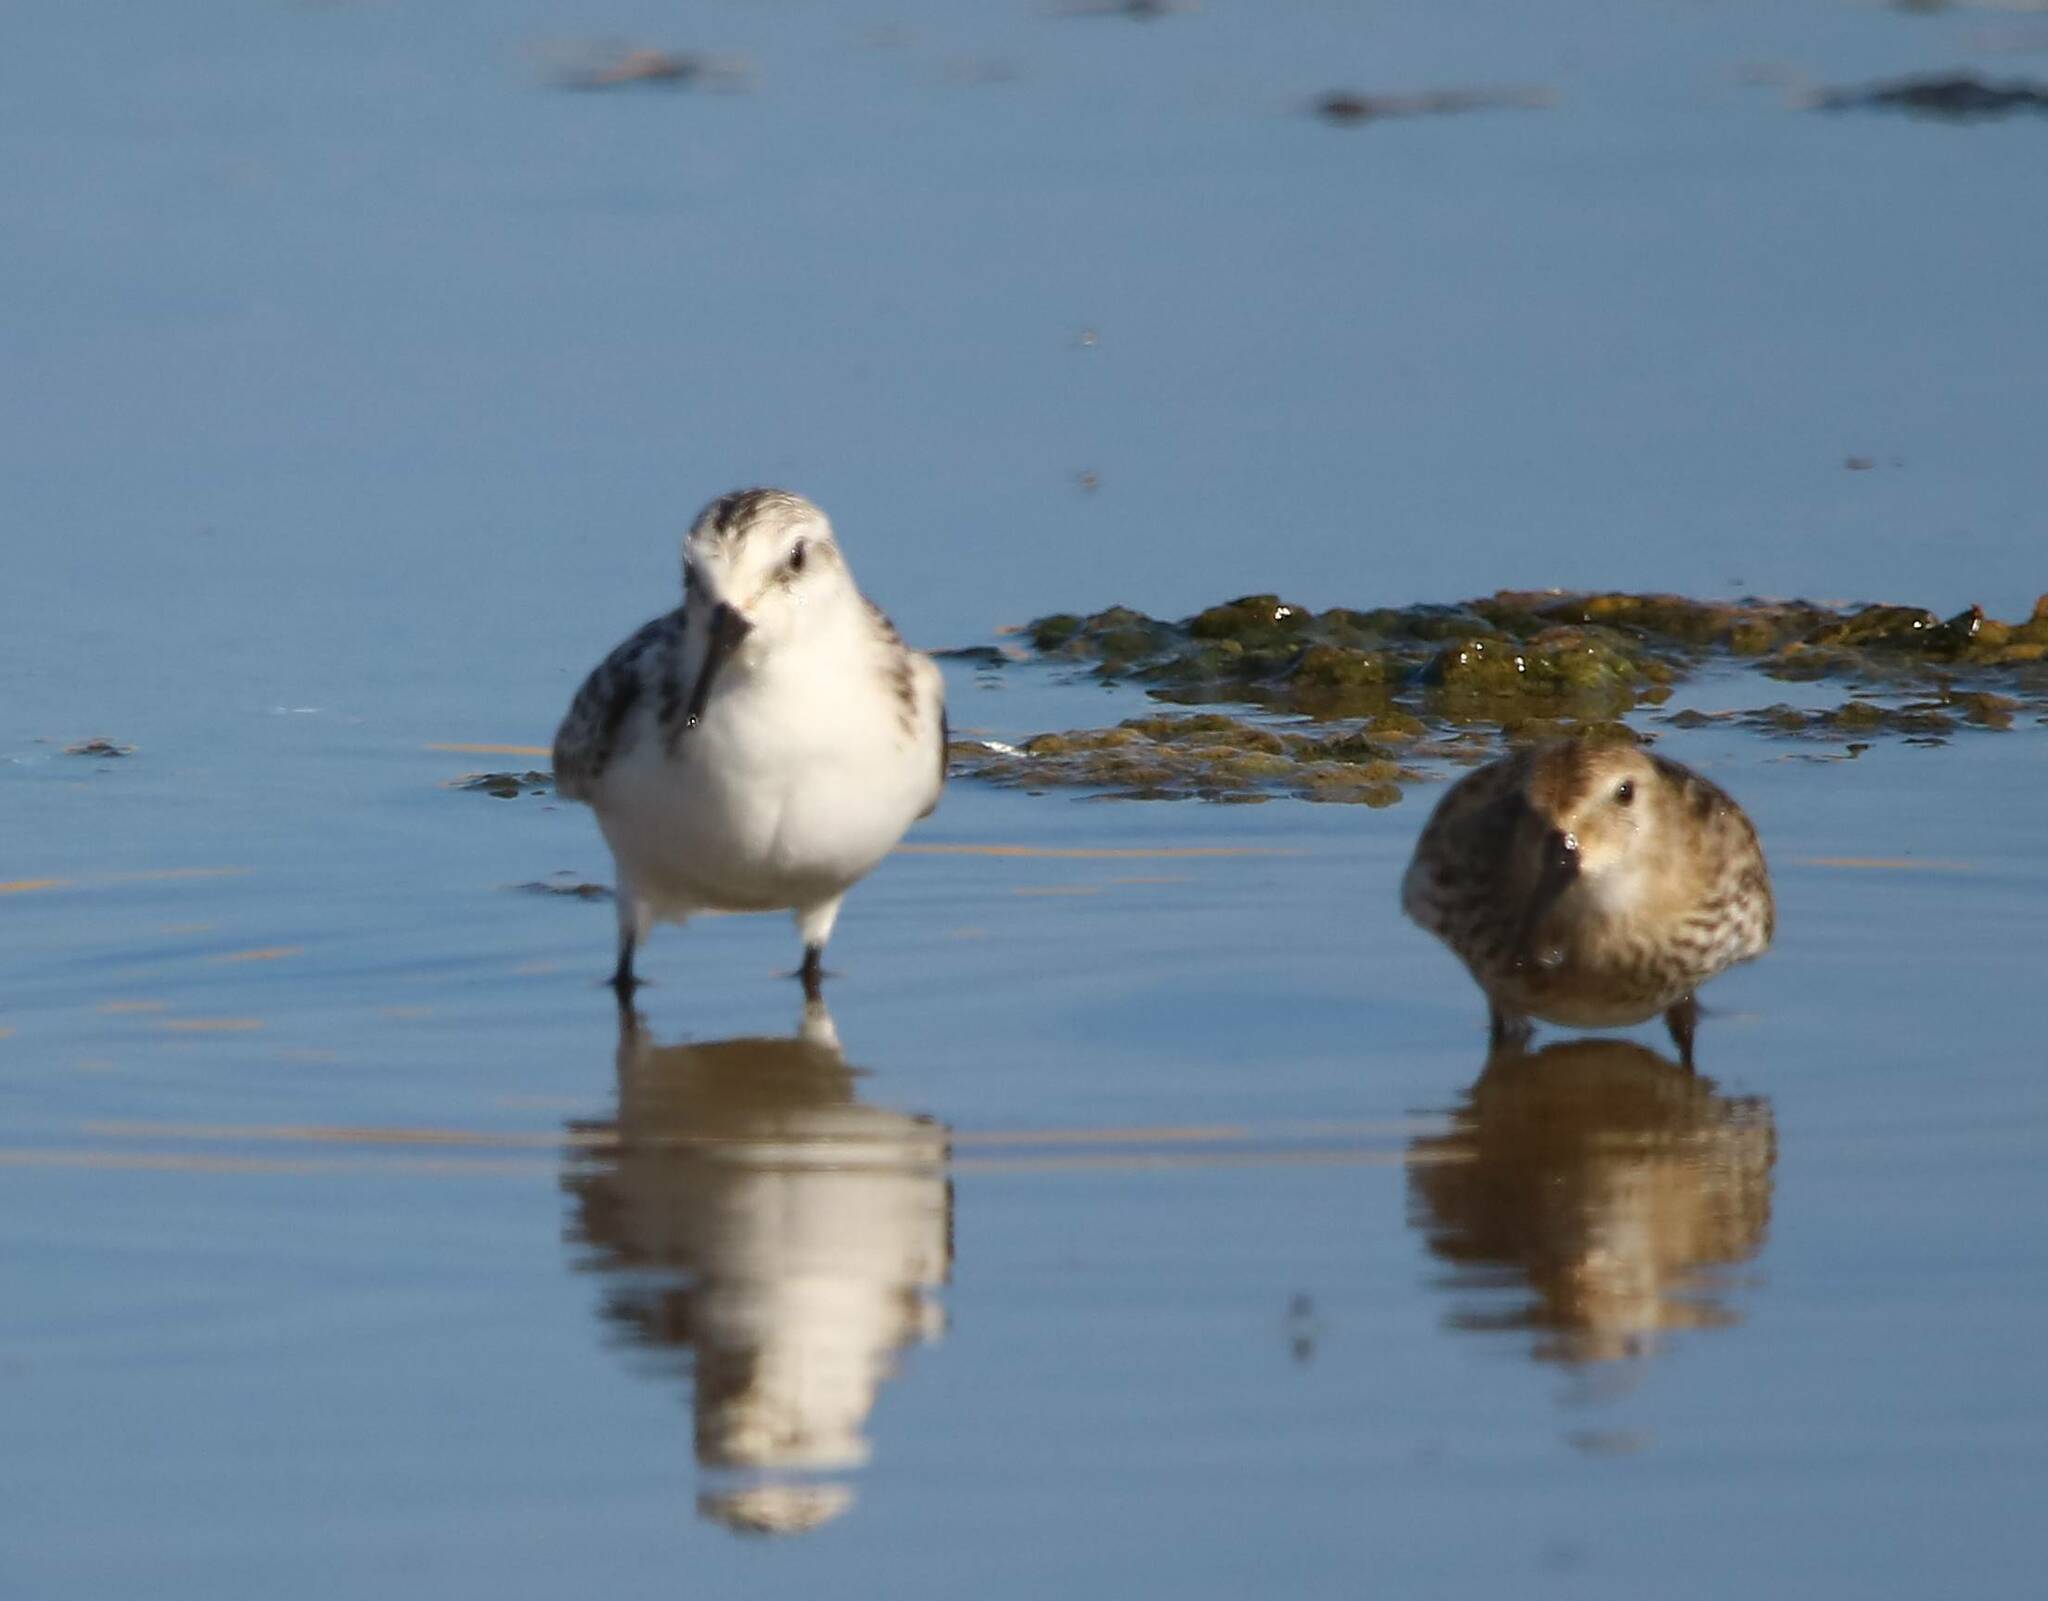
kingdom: Animalia
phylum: Chordata
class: Aves
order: Charadriiformes
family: Scolopacidae
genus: Calidris
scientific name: Calidris alba
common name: Sanderling
